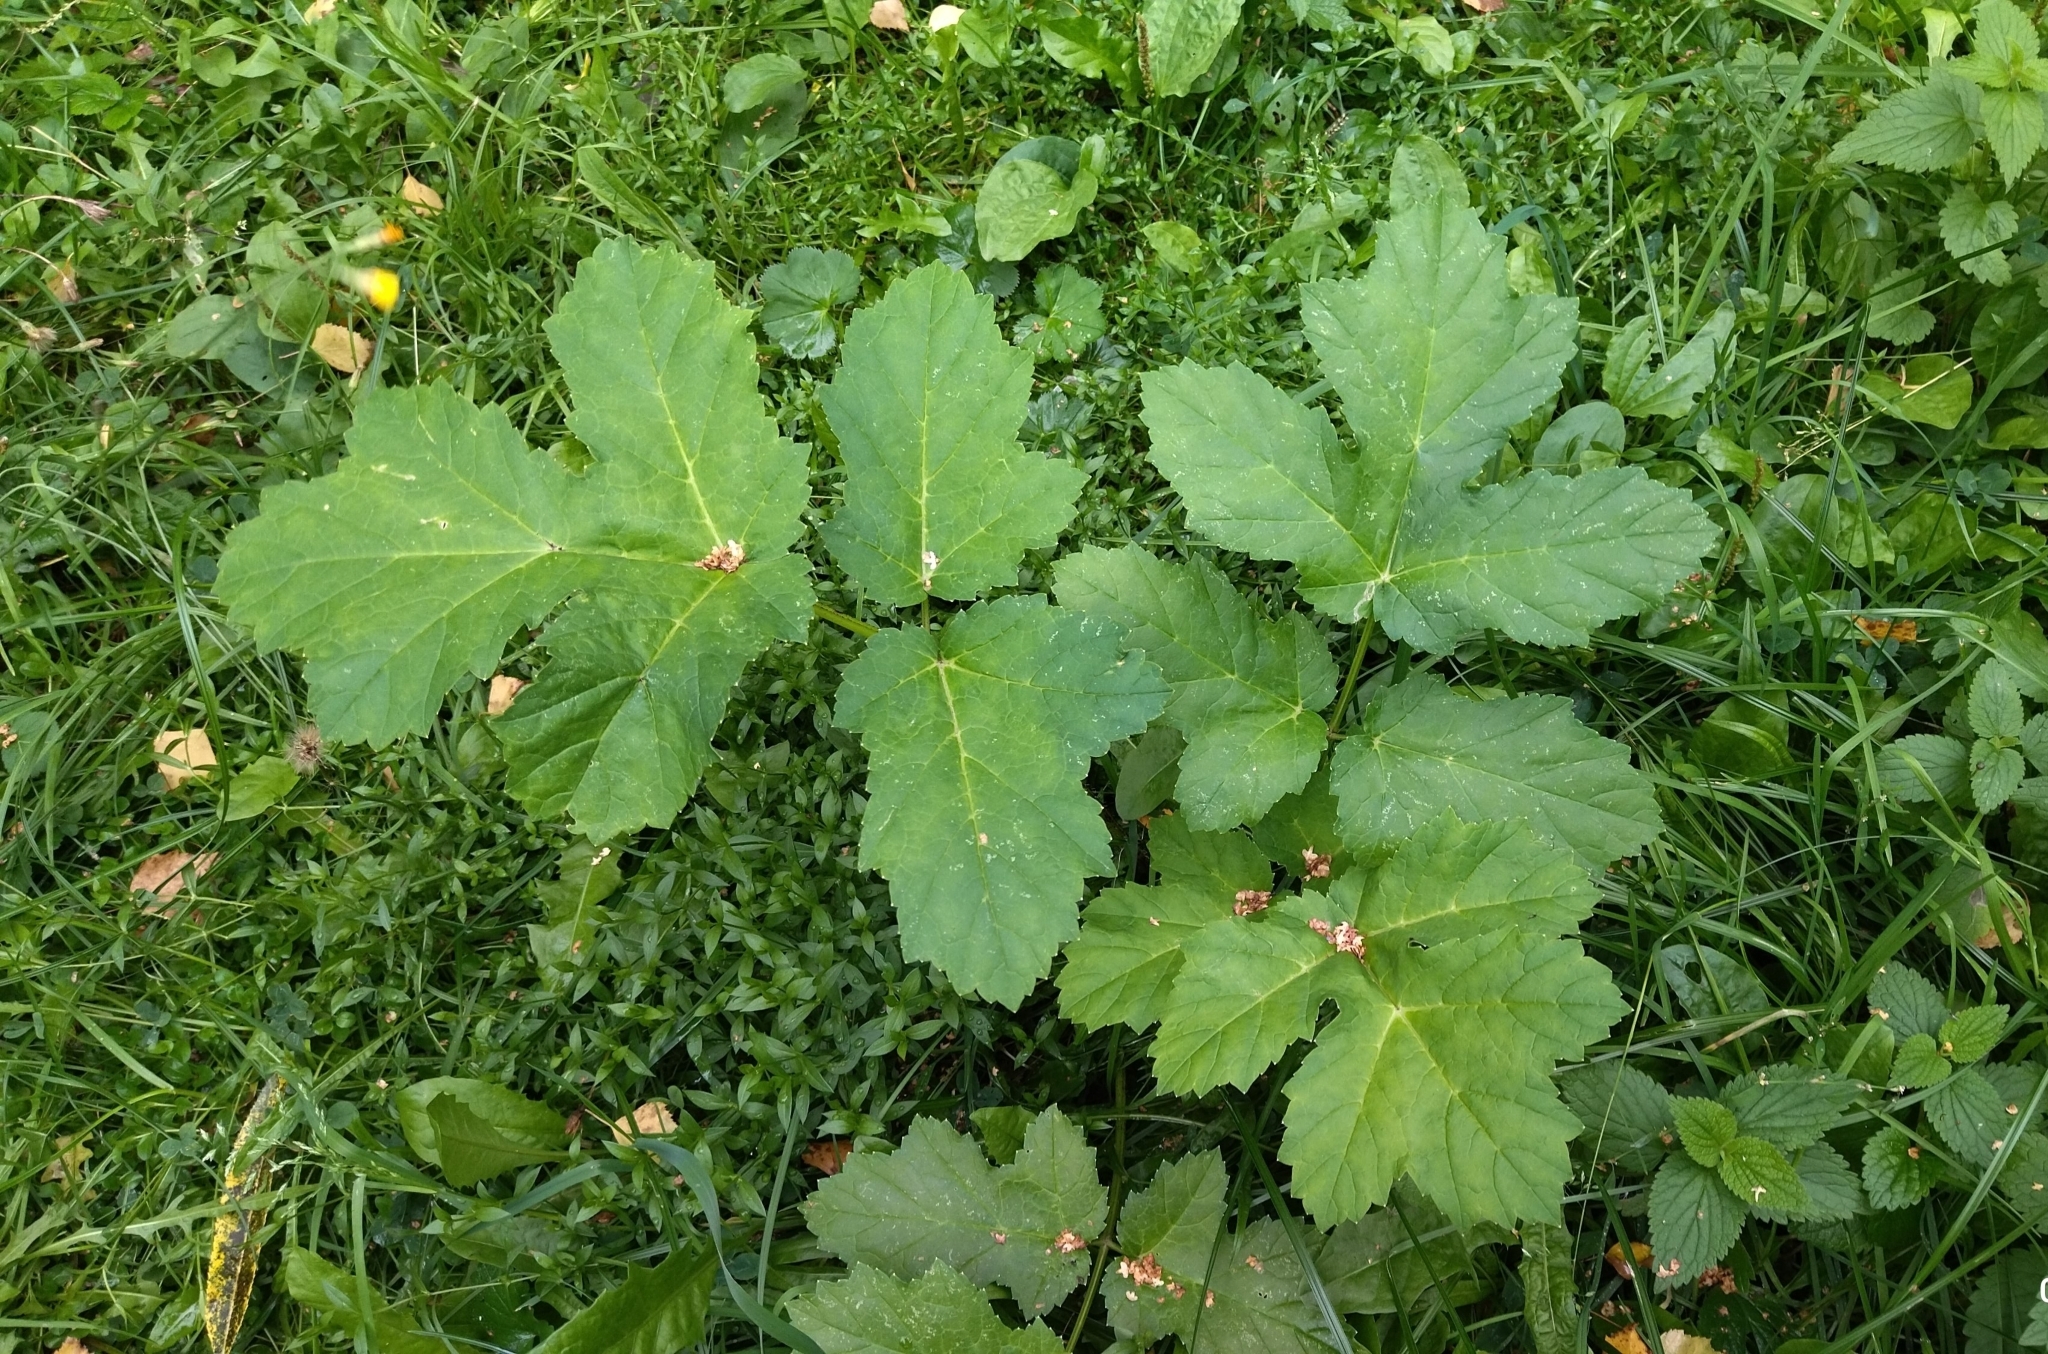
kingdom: Plantae
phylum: Tracheophyta
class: Magnoliopsida
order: Apiales
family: Apiaceae
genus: Heracleum
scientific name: Heracleum sosnowskyi
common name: Sosnowsky's hogweed
